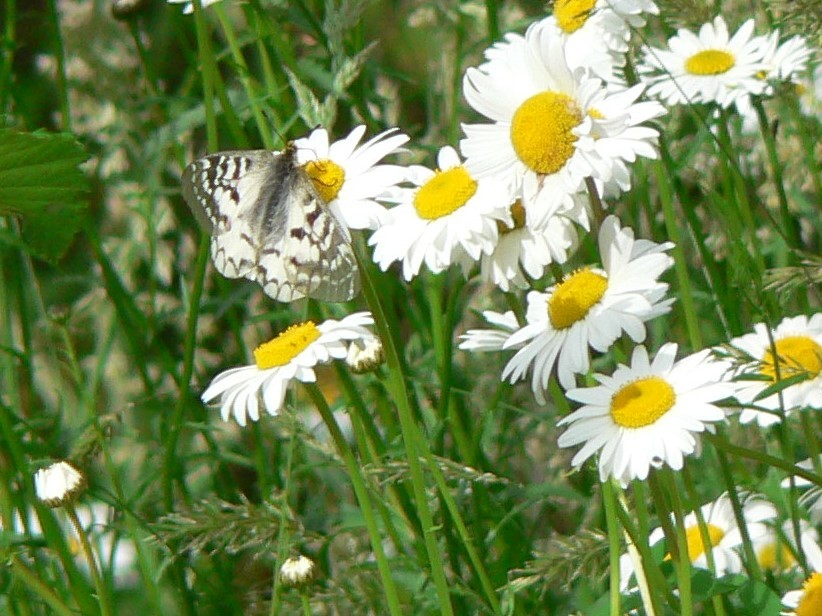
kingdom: Animalia
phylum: Arthropoda
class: Insecta
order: Lepidoptera
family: Papilionidae
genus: Parnassius
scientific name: Parnassius clodius
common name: American apollo
